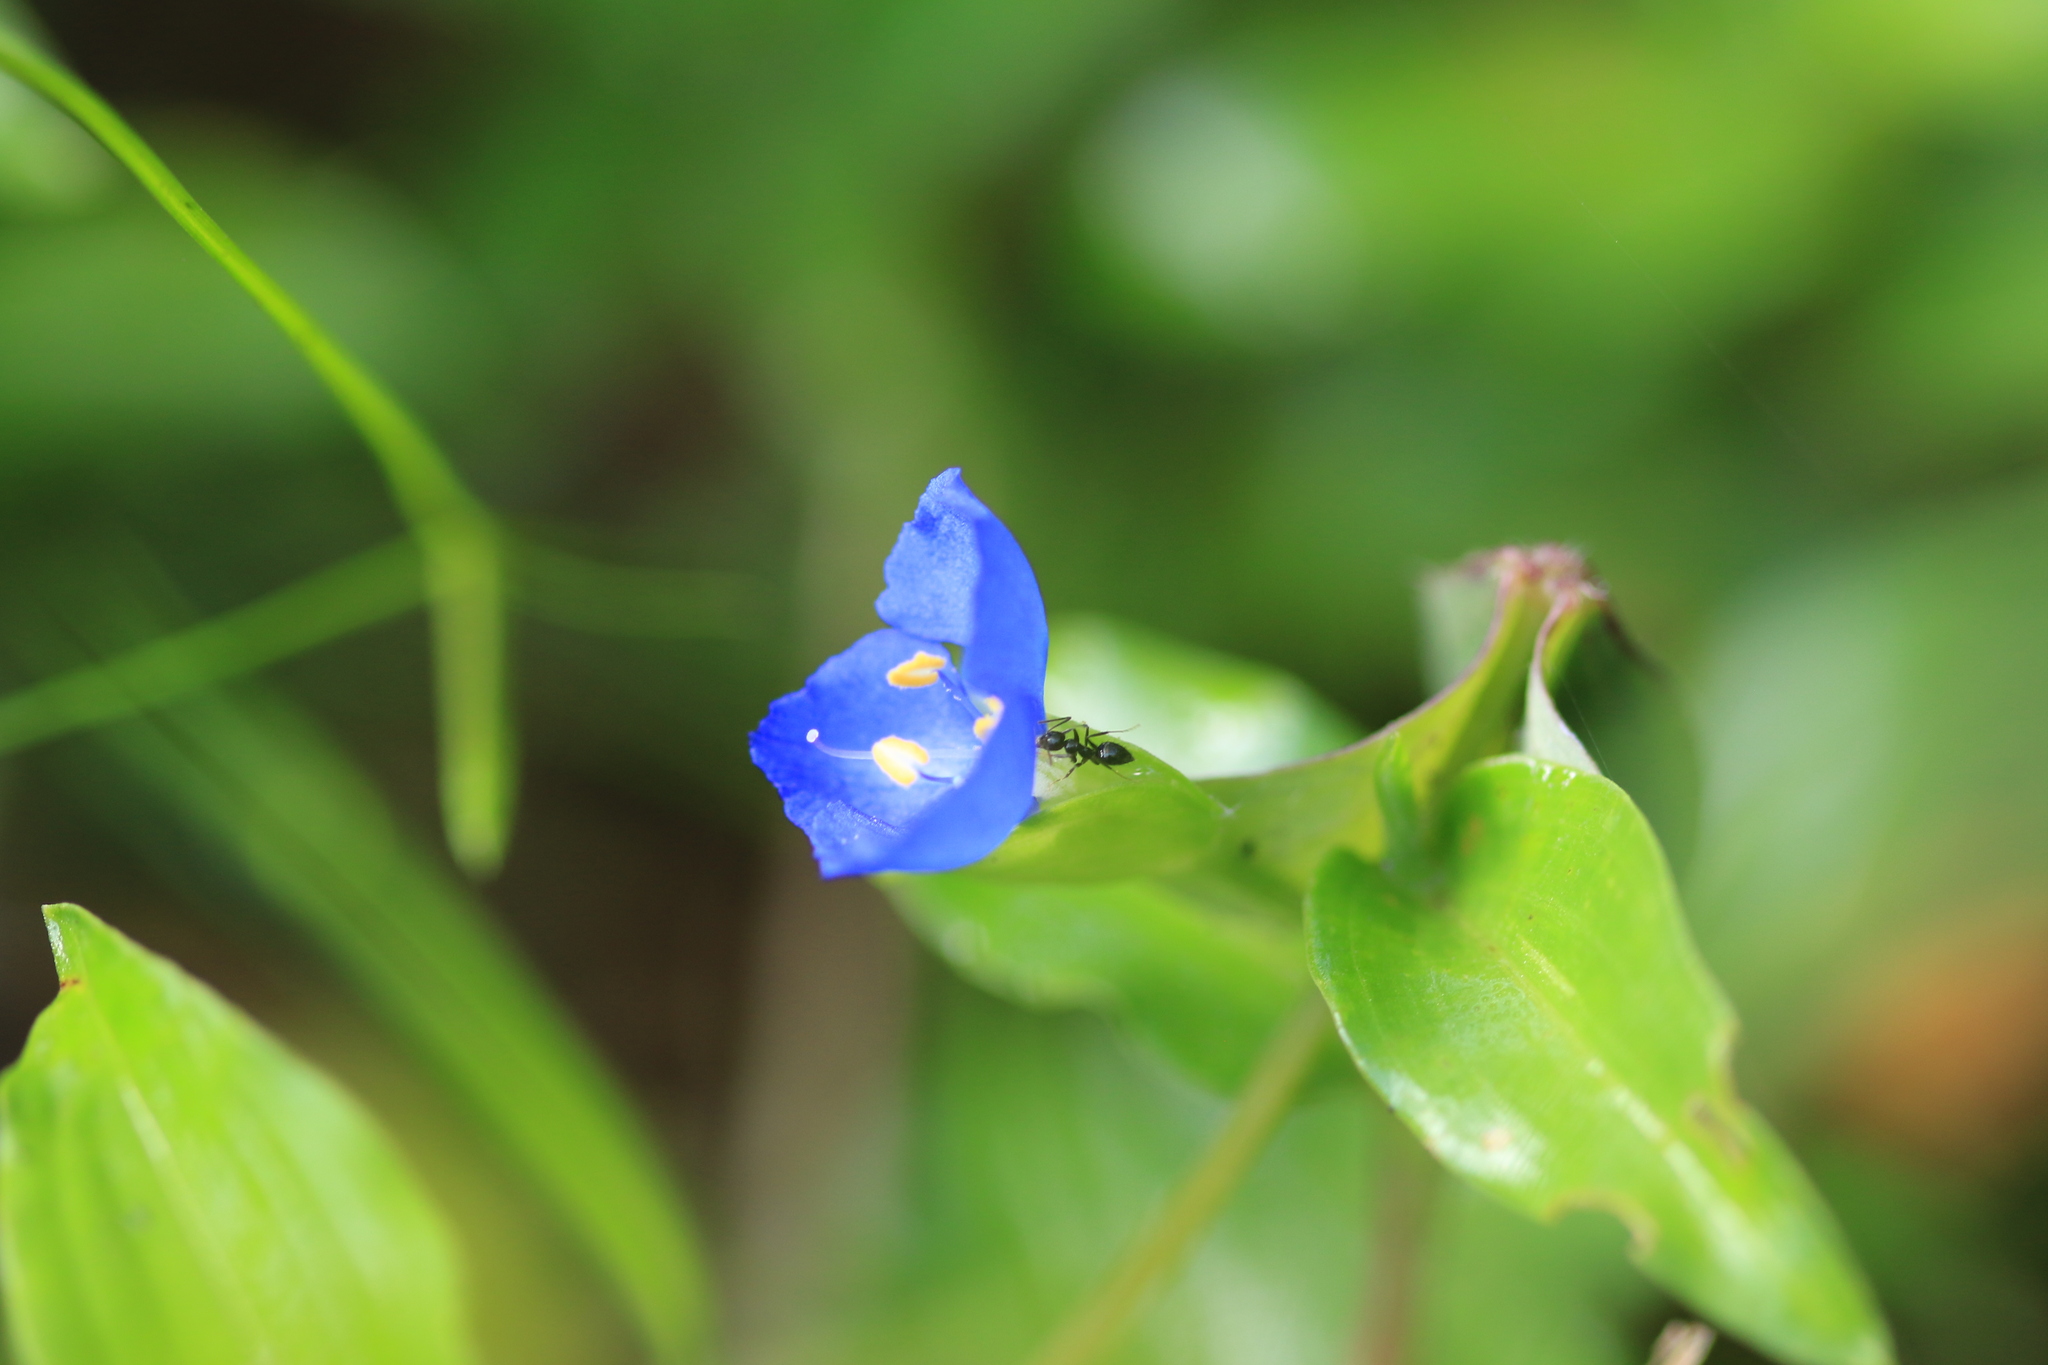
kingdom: Plantae
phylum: Tracheophyta
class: Liliopsida
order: Commelinales
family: Commelinaceae
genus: Commelina
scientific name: Commelina cyanea
